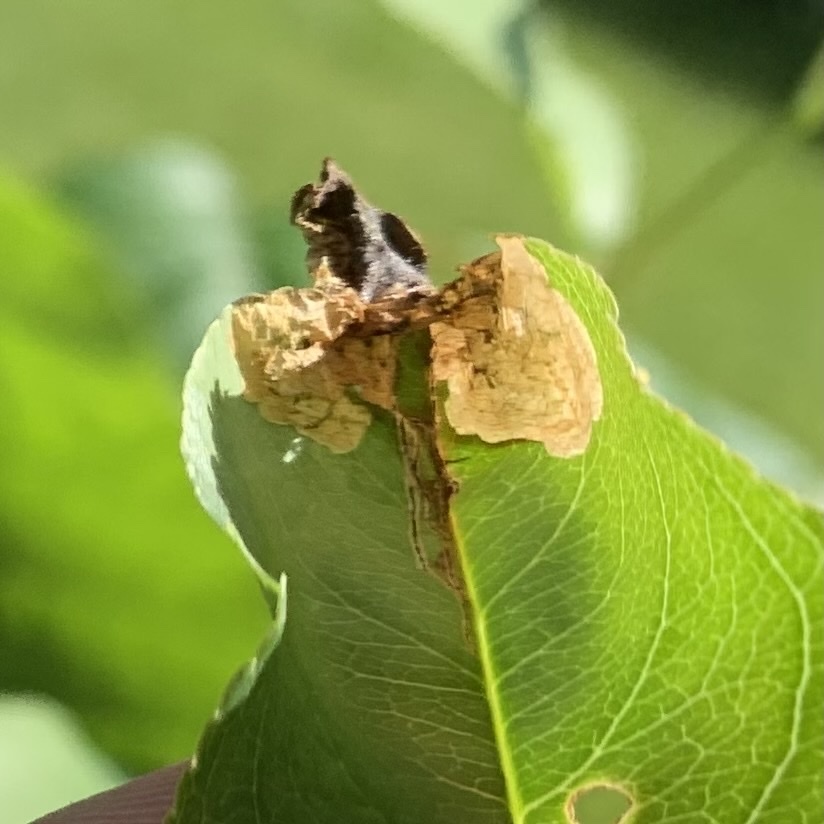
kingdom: Animalia
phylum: Arthropoda
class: Insecta
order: Coleoptera
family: Curculionidae
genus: Orchestes
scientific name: Orchestes pallicornis
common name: Apple-flea weevil
